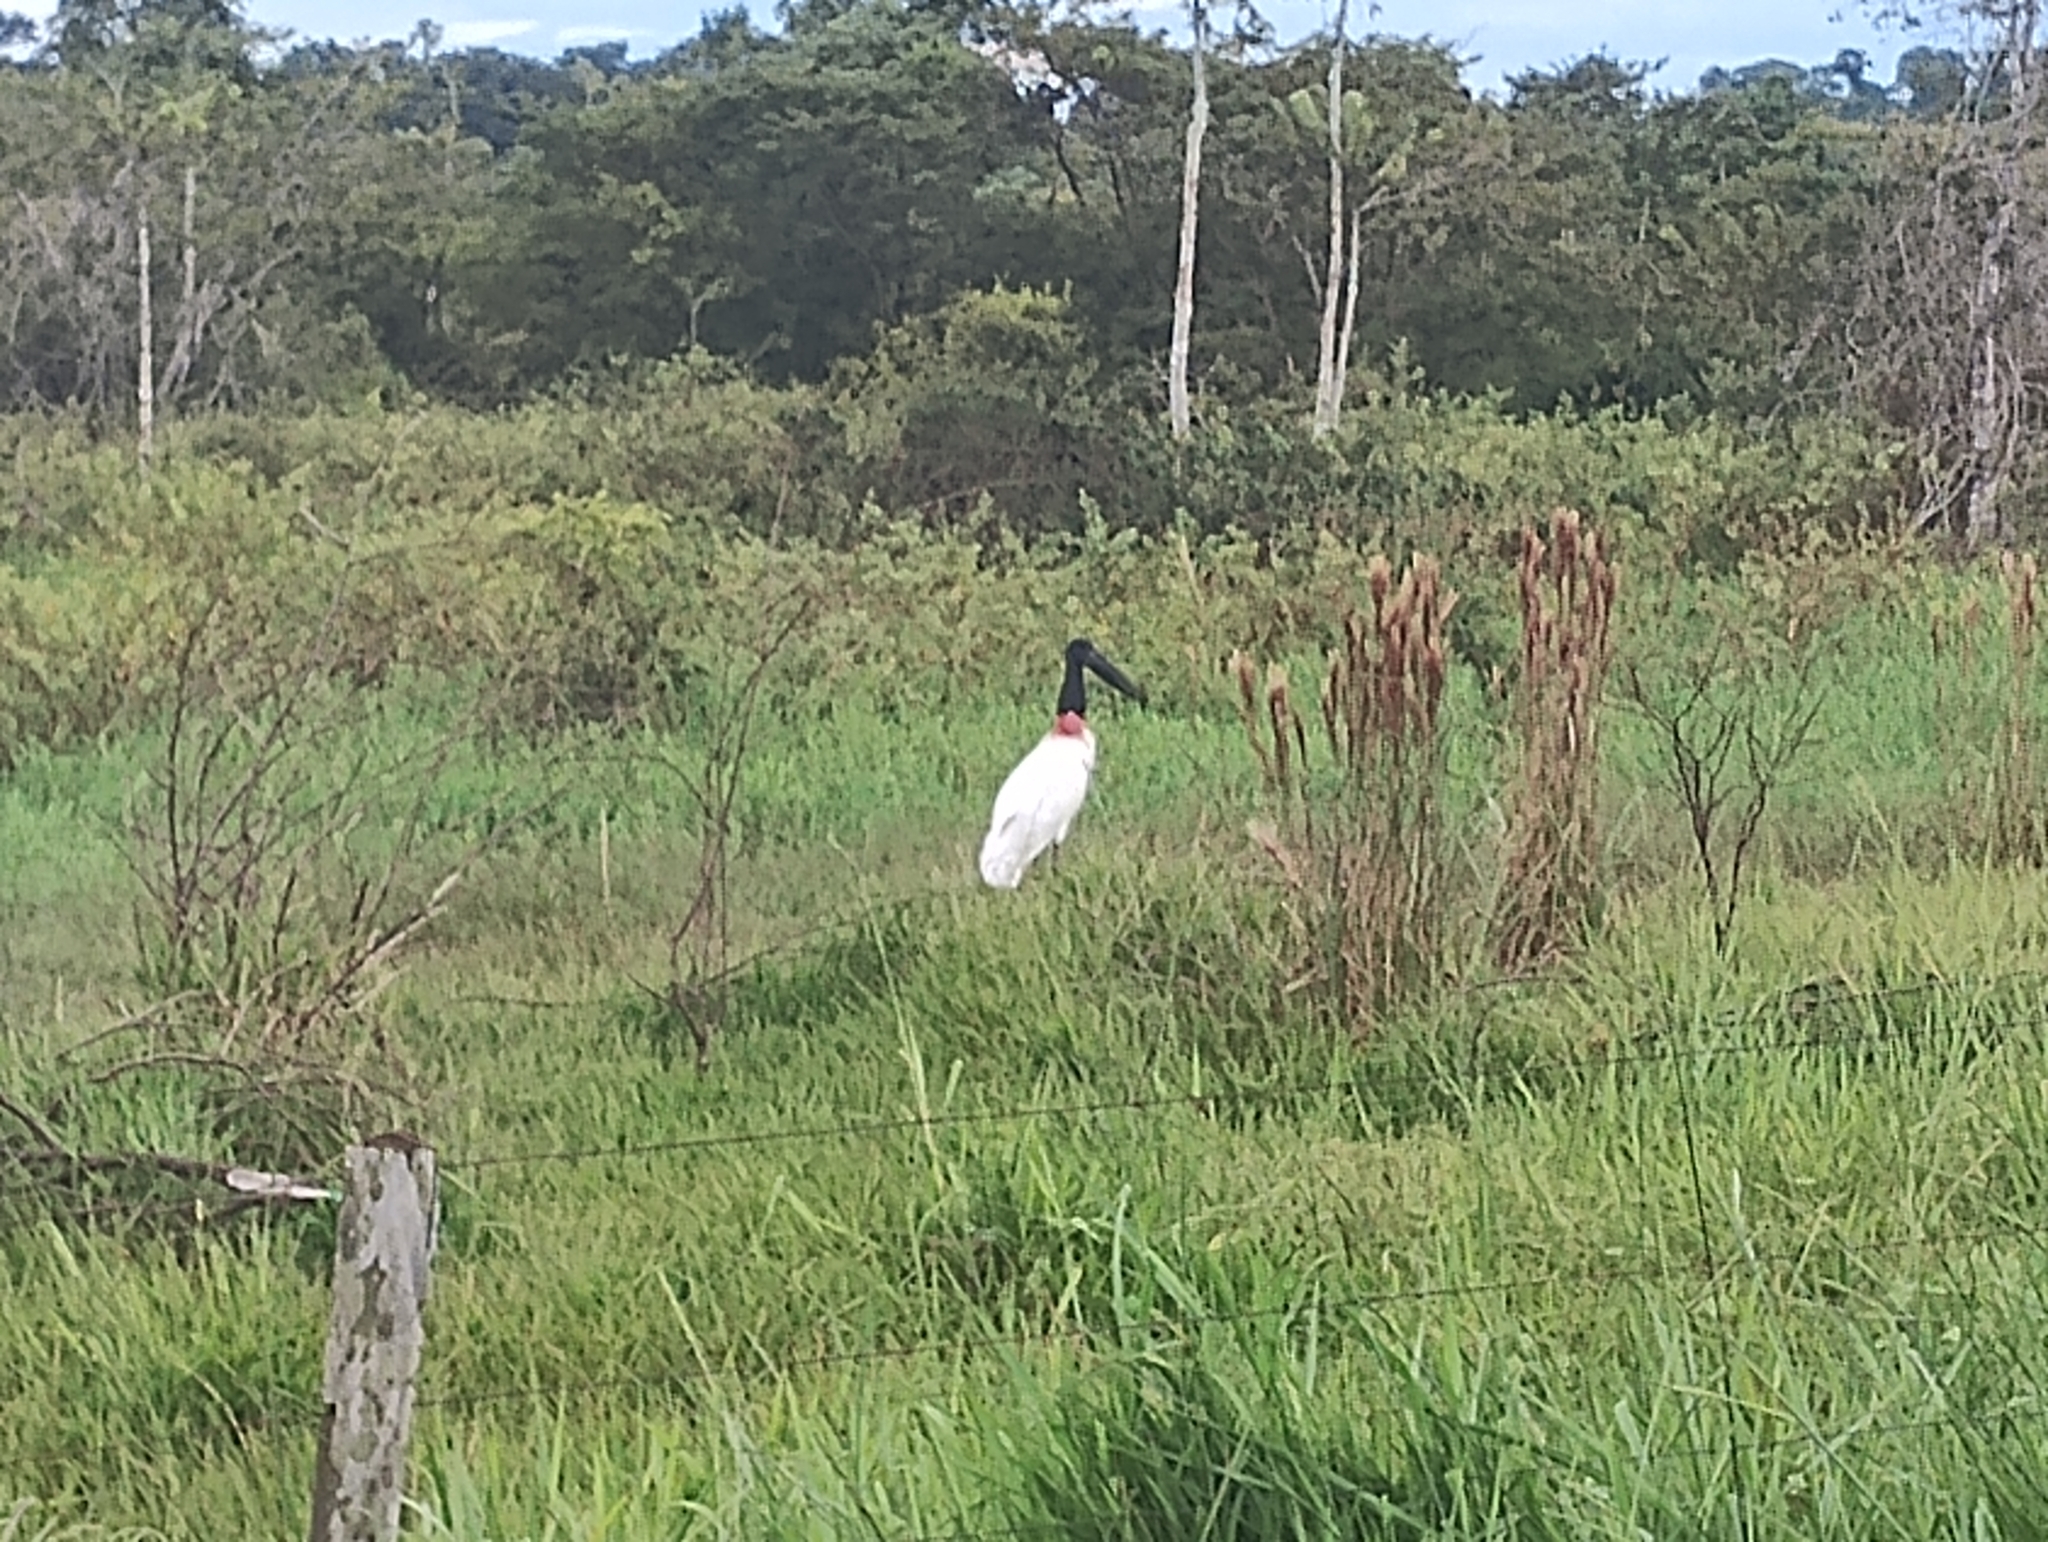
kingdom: Animalia
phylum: Chordata
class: Aves
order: Ciconiiformes
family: Ciconiidae
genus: Jabiru
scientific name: Jabiru mycteria
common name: Jabiru
